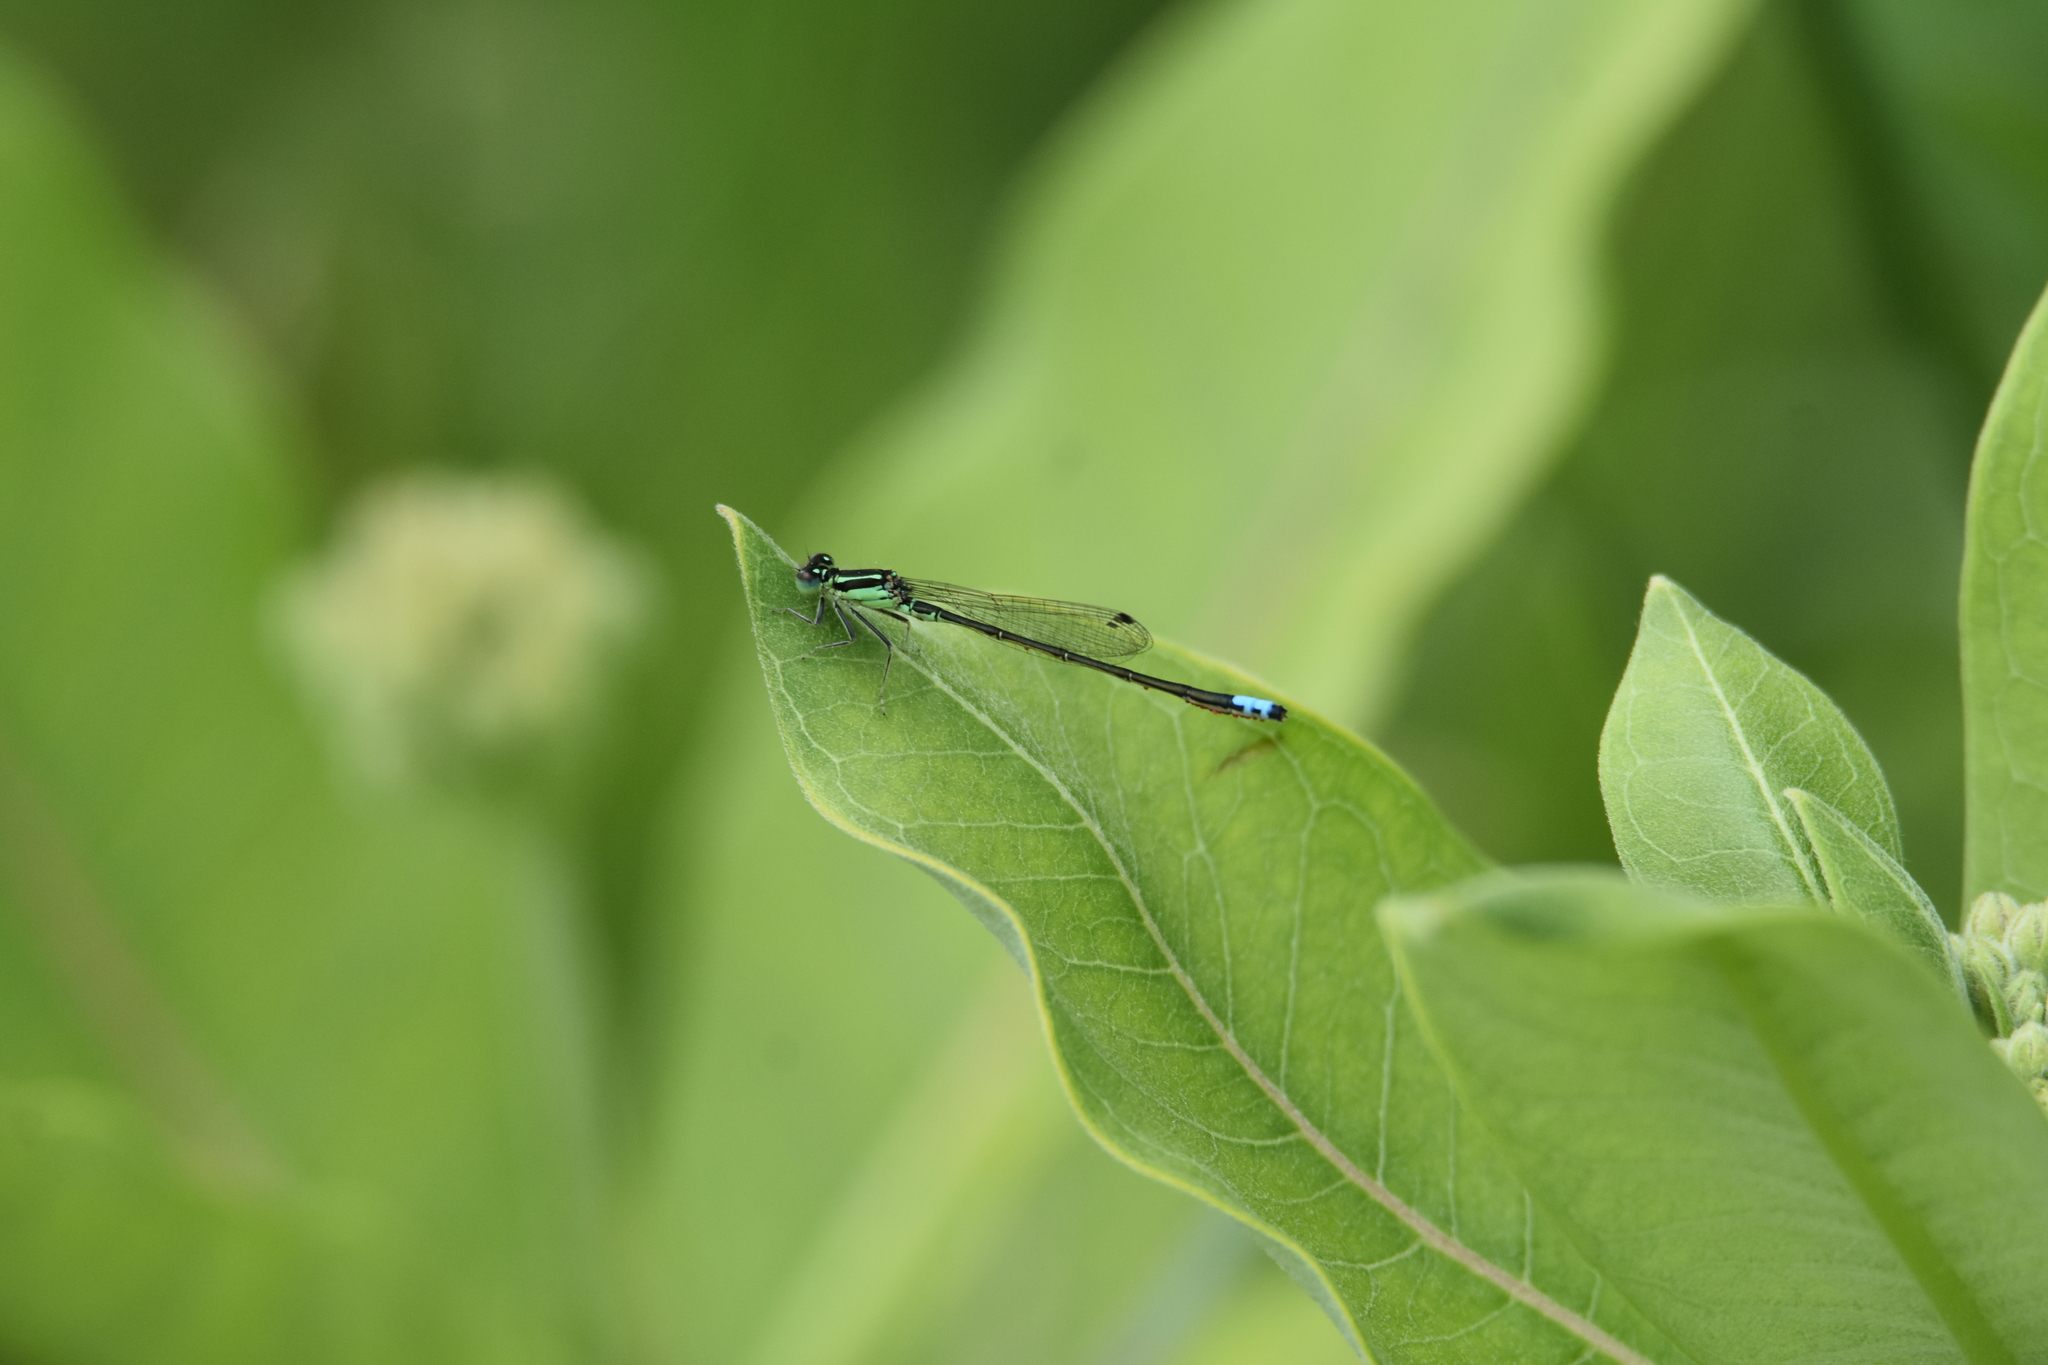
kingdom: Animalia
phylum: Arthropoda
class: Insecta
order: Odonata
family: Coenagrionidae
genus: Ischnura
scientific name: Ischnura verticalis
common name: Eastern forktail
